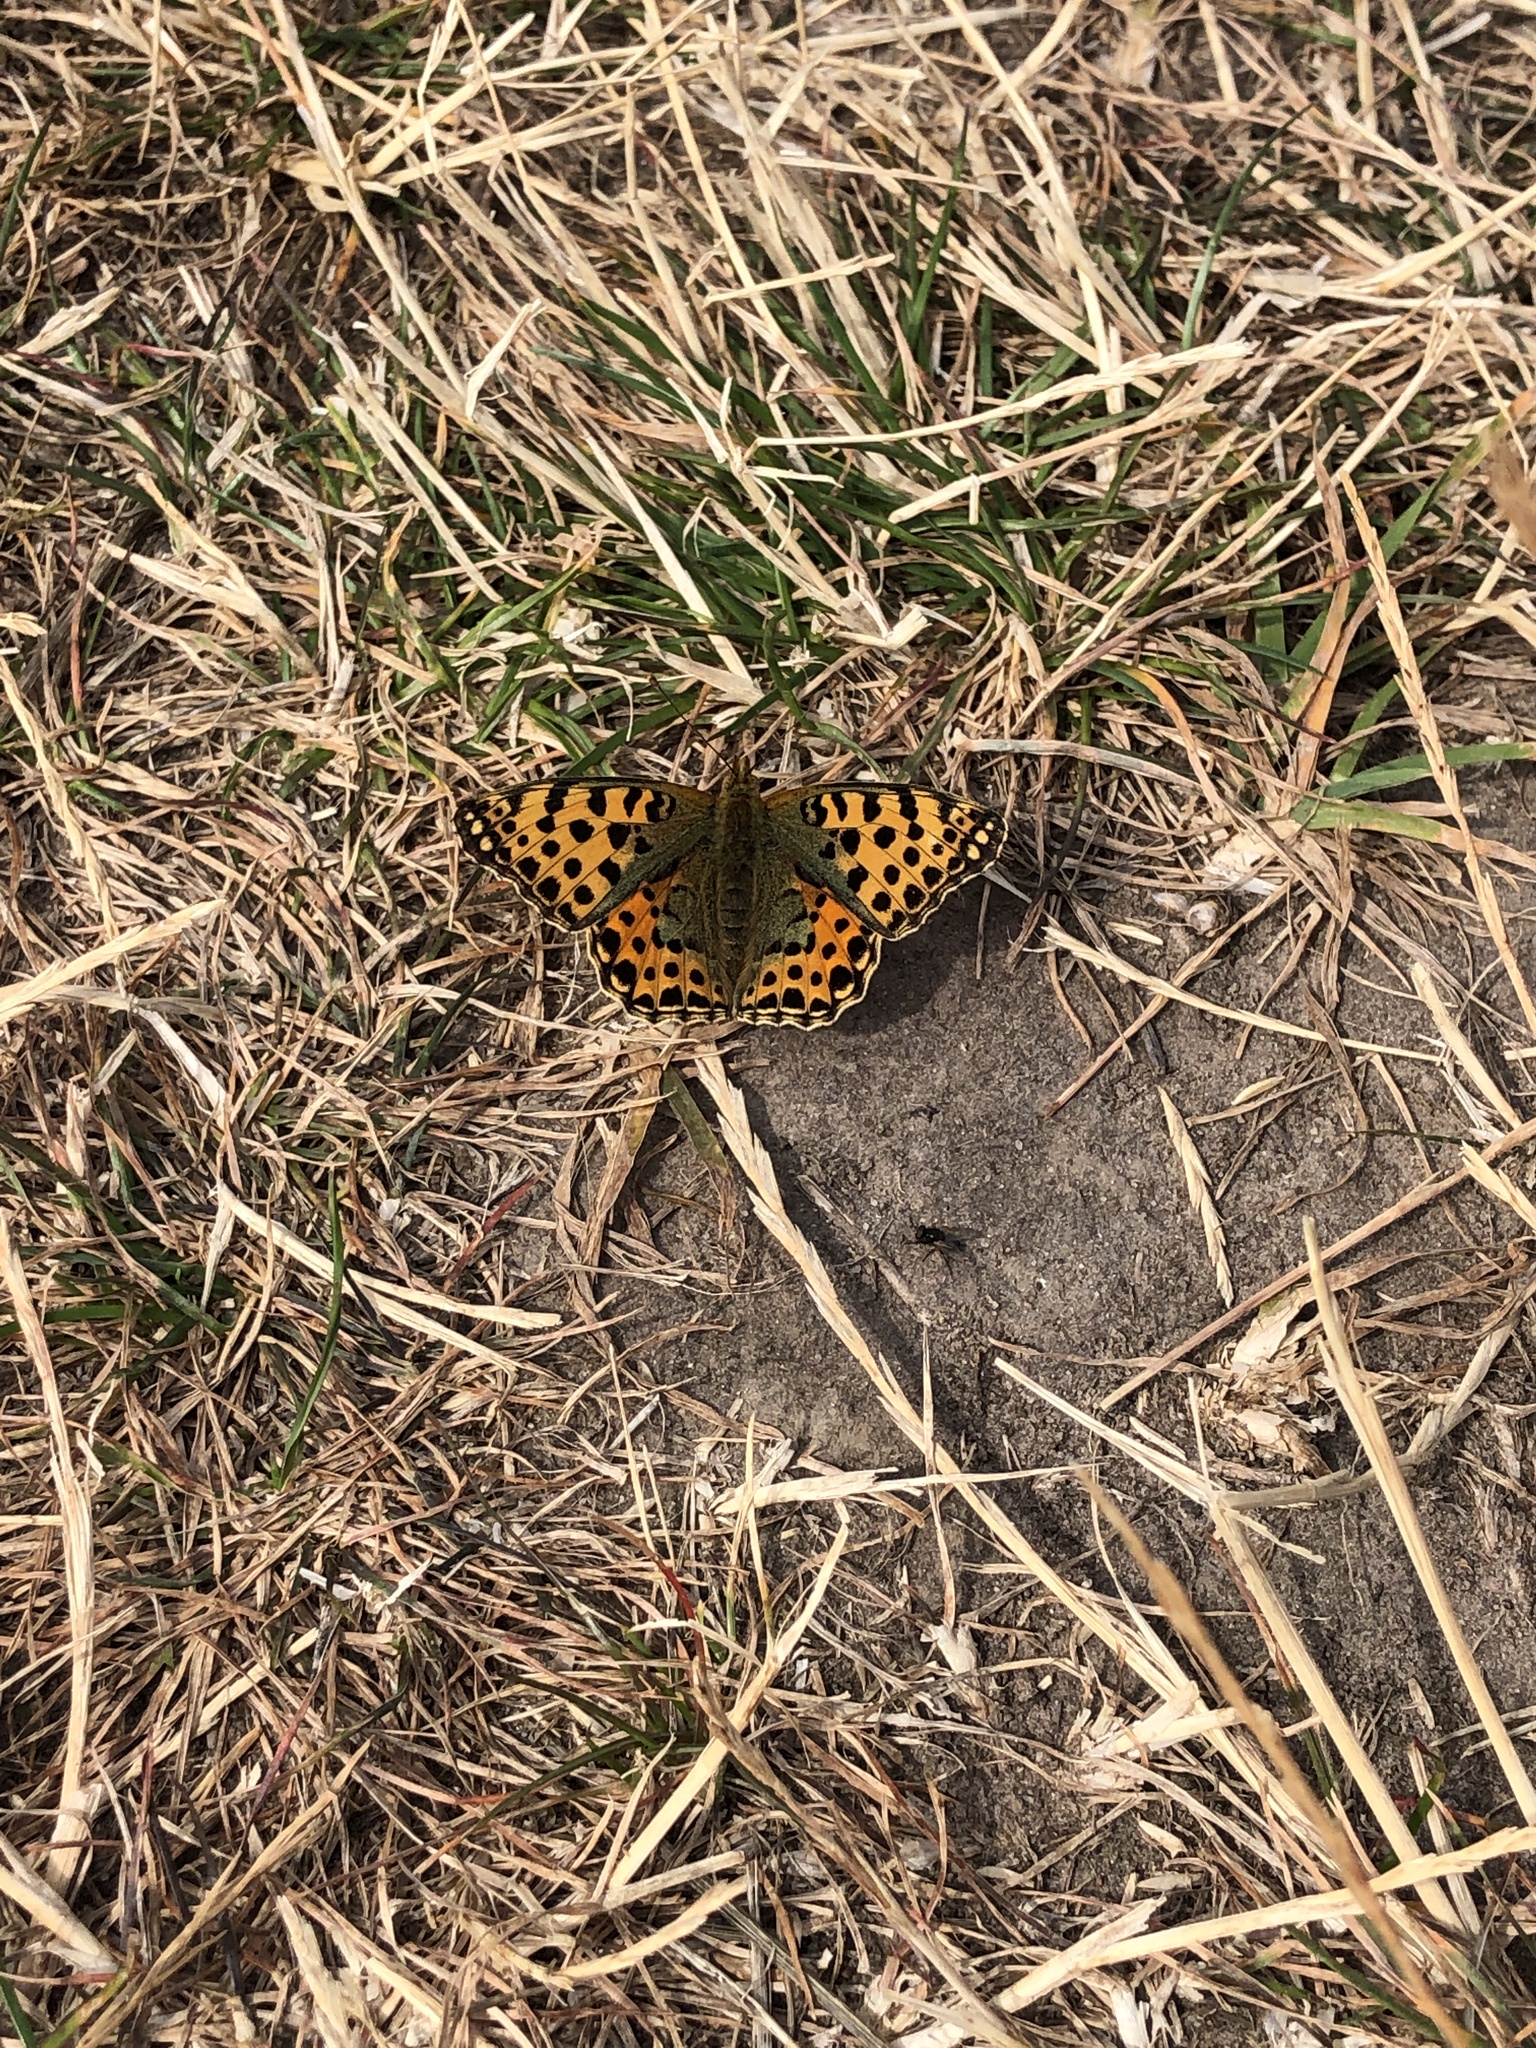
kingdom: Animalia
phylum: Arthropoda
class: Insecta
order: Lepidoptera
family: Nymphalidae
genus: Issoria
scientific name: Issoria lathonia
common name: Queen of spain fritillary
